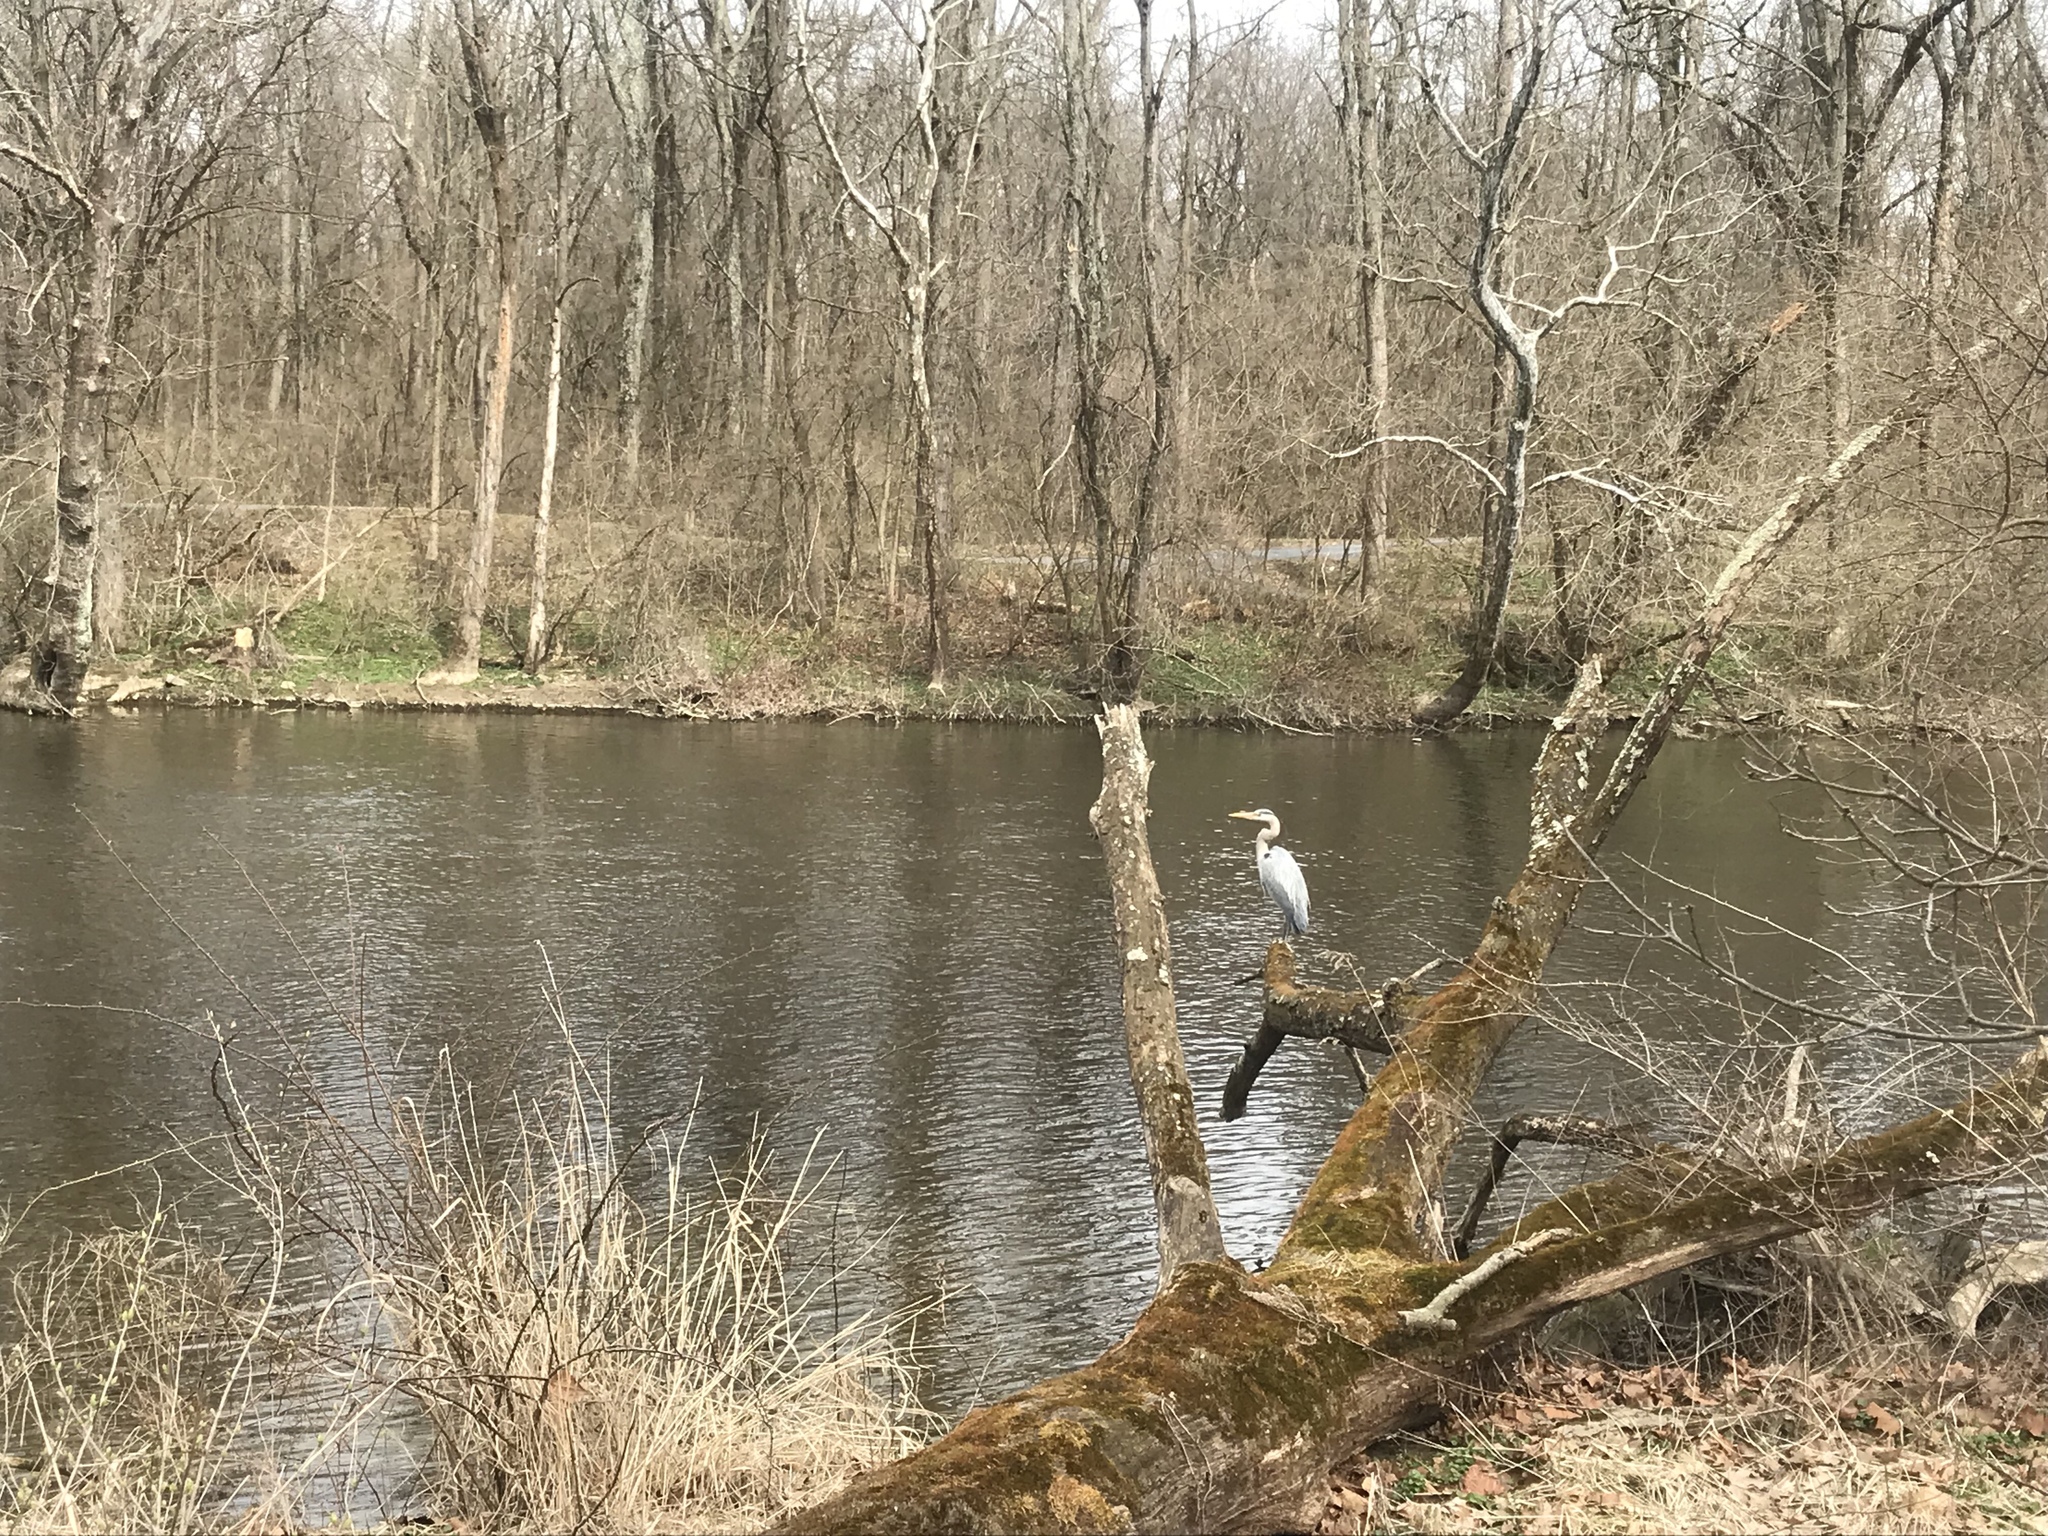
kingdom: Animalia
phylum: Chordata
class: Aves
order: Pelecaniformes
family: Ardeidae
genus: Ardea
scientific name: Ardea herodias
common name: Great blue heron
